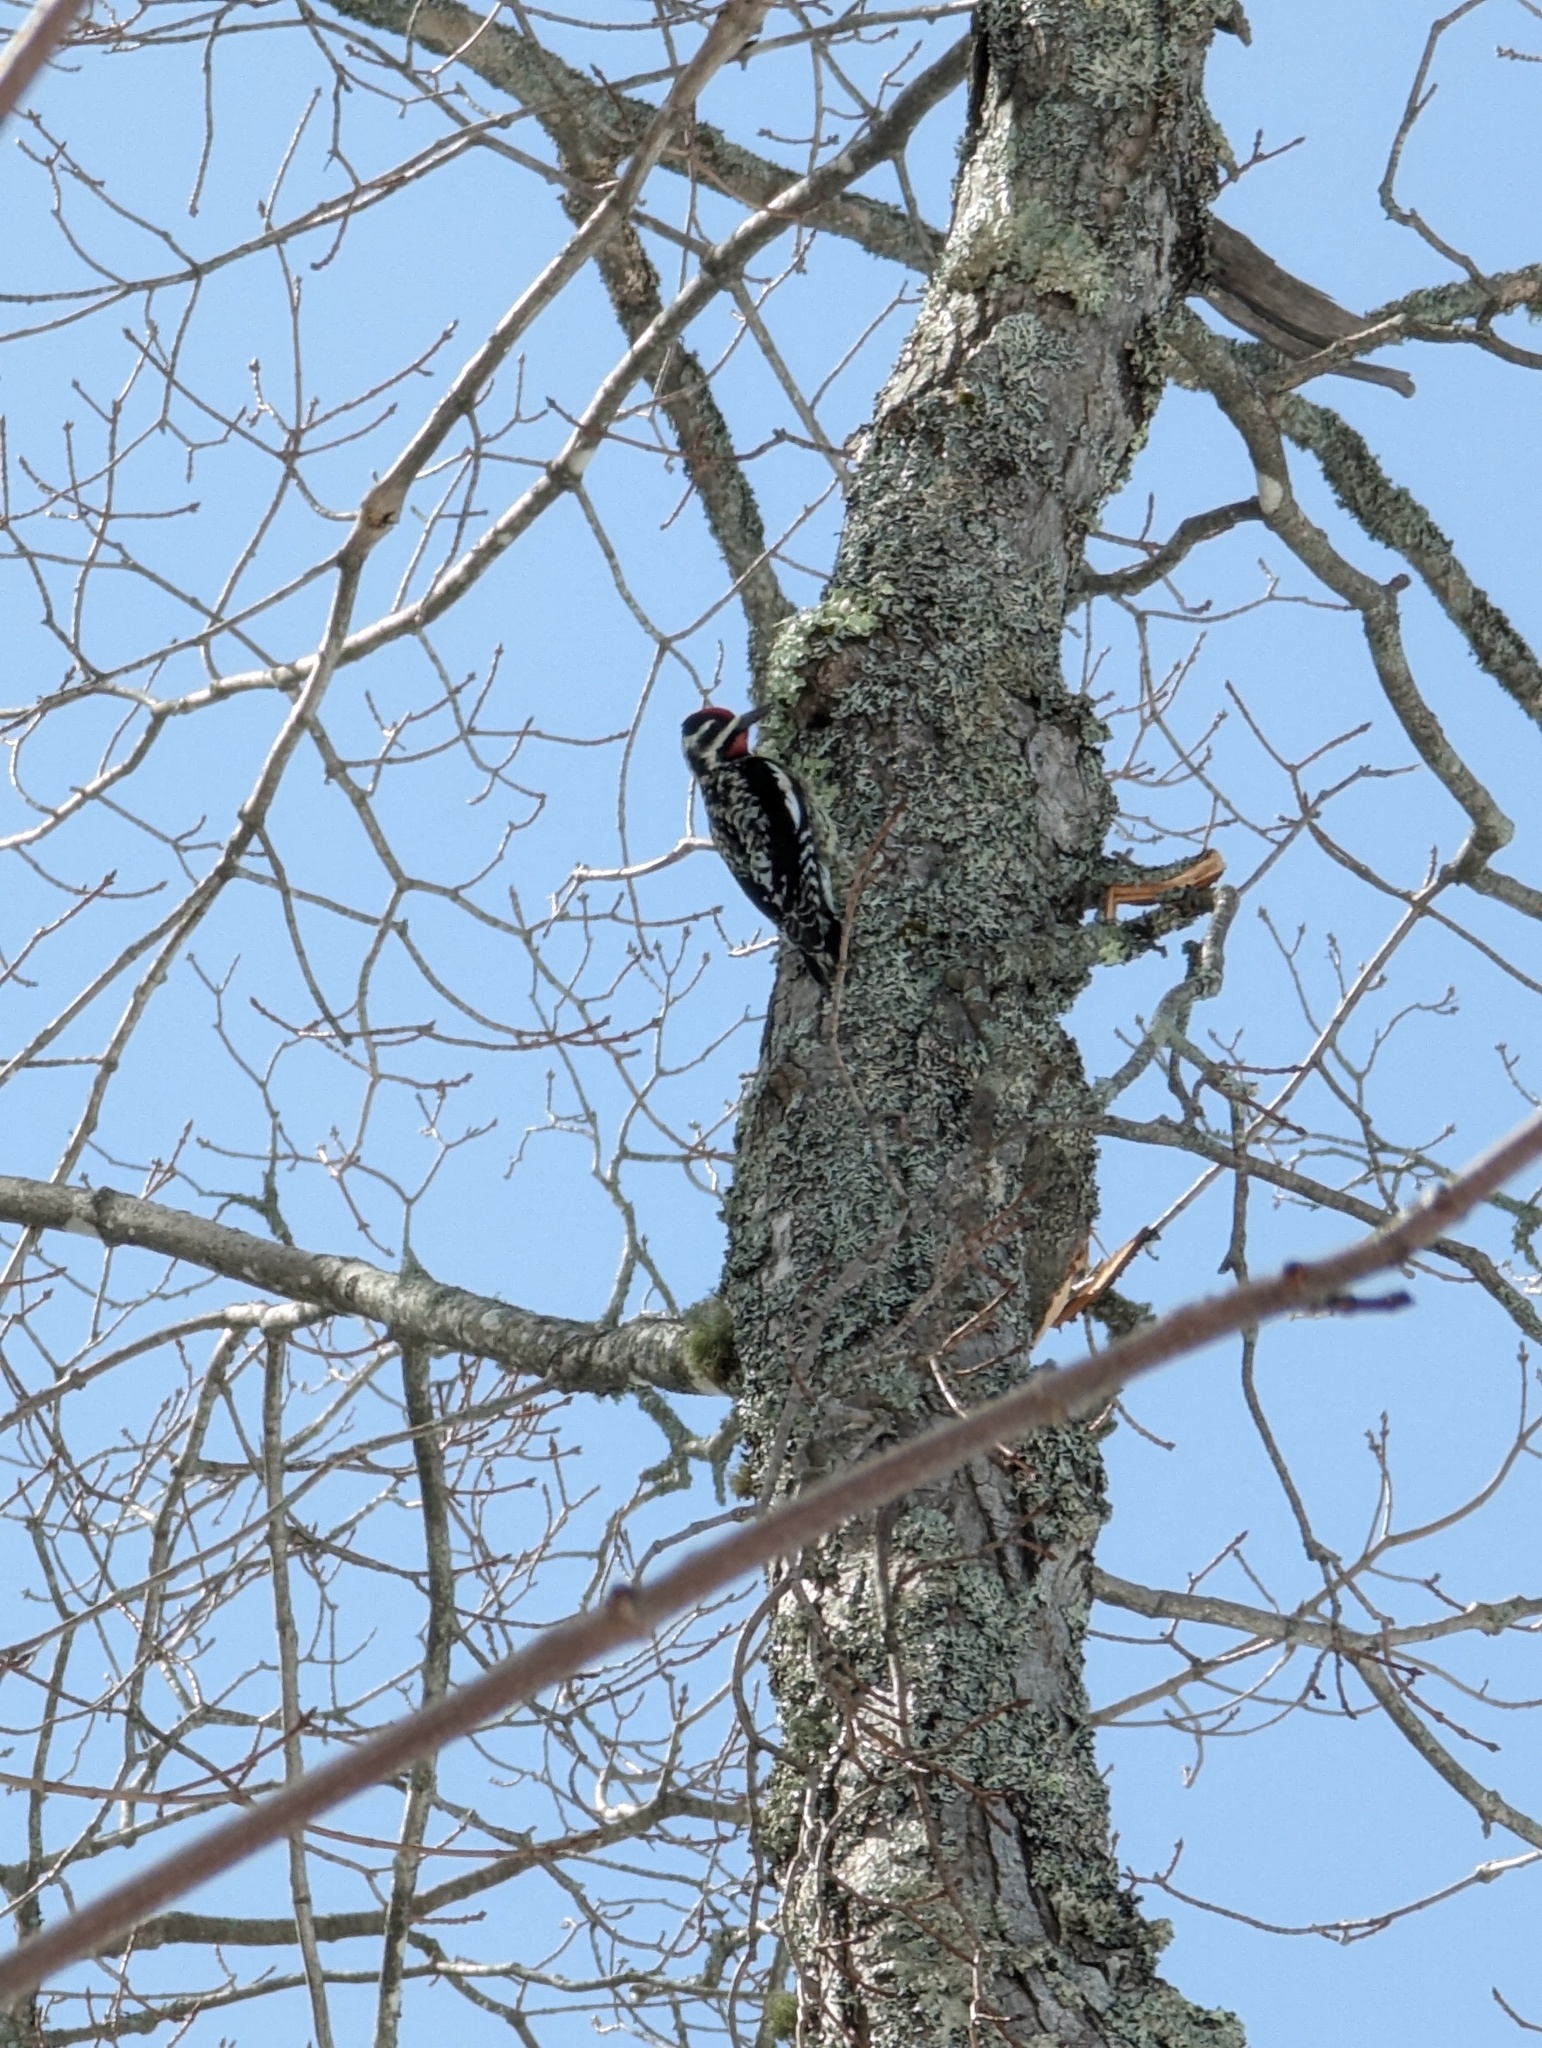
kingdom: Animalia
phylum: Chordata
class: Aves
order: Piciformes
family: Picidae
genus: Sphyrapicus
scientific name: Sphyrapicus varius
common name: Yellow-bellied sapsucker
